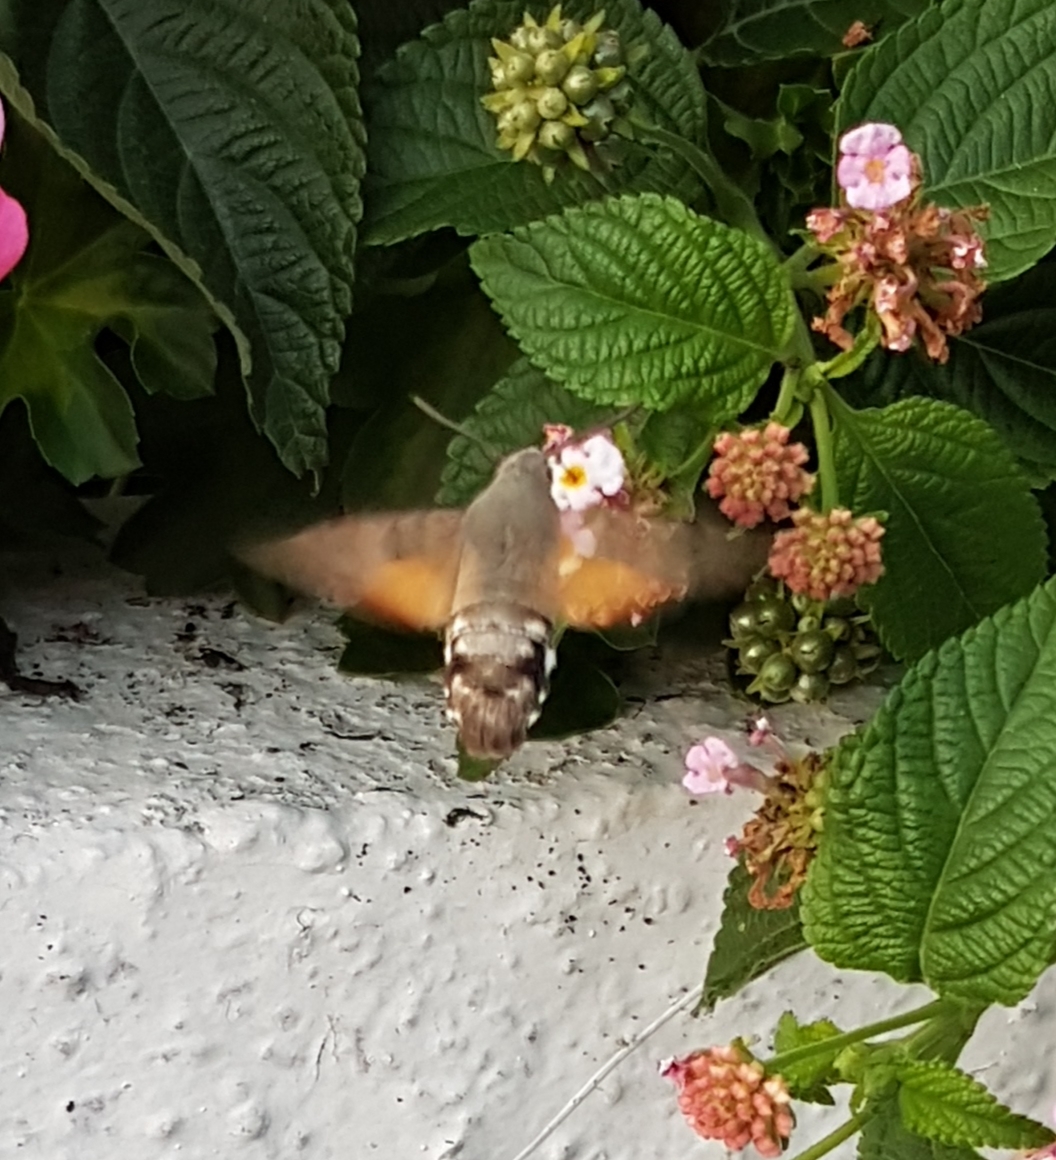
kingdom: Animalia
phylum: Arthropoda
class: Insecta
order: Lepidoptera
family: Sphingidae
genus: Macroglossum
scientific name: Macroglossum stellatarum
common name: Humming-bird hawk-moth
